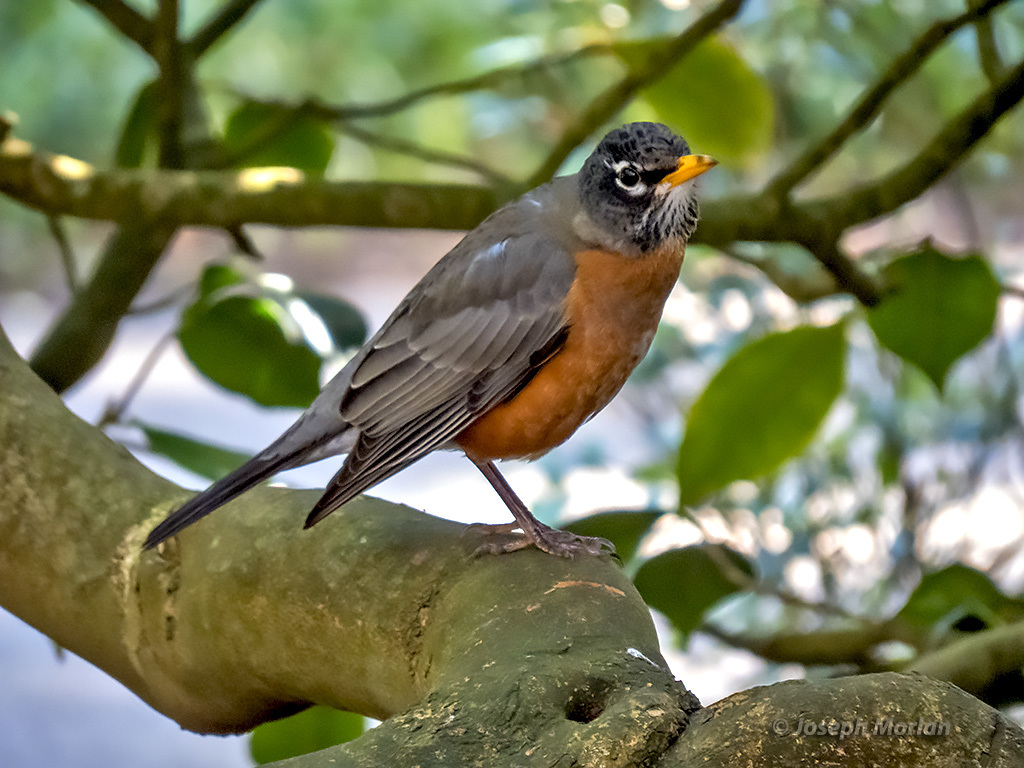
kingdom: Animalia
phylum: Chordata
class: Aves
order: Passeriformes
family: Turdidae
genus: Turdus
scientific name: Turdus migratorius
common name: American robin
